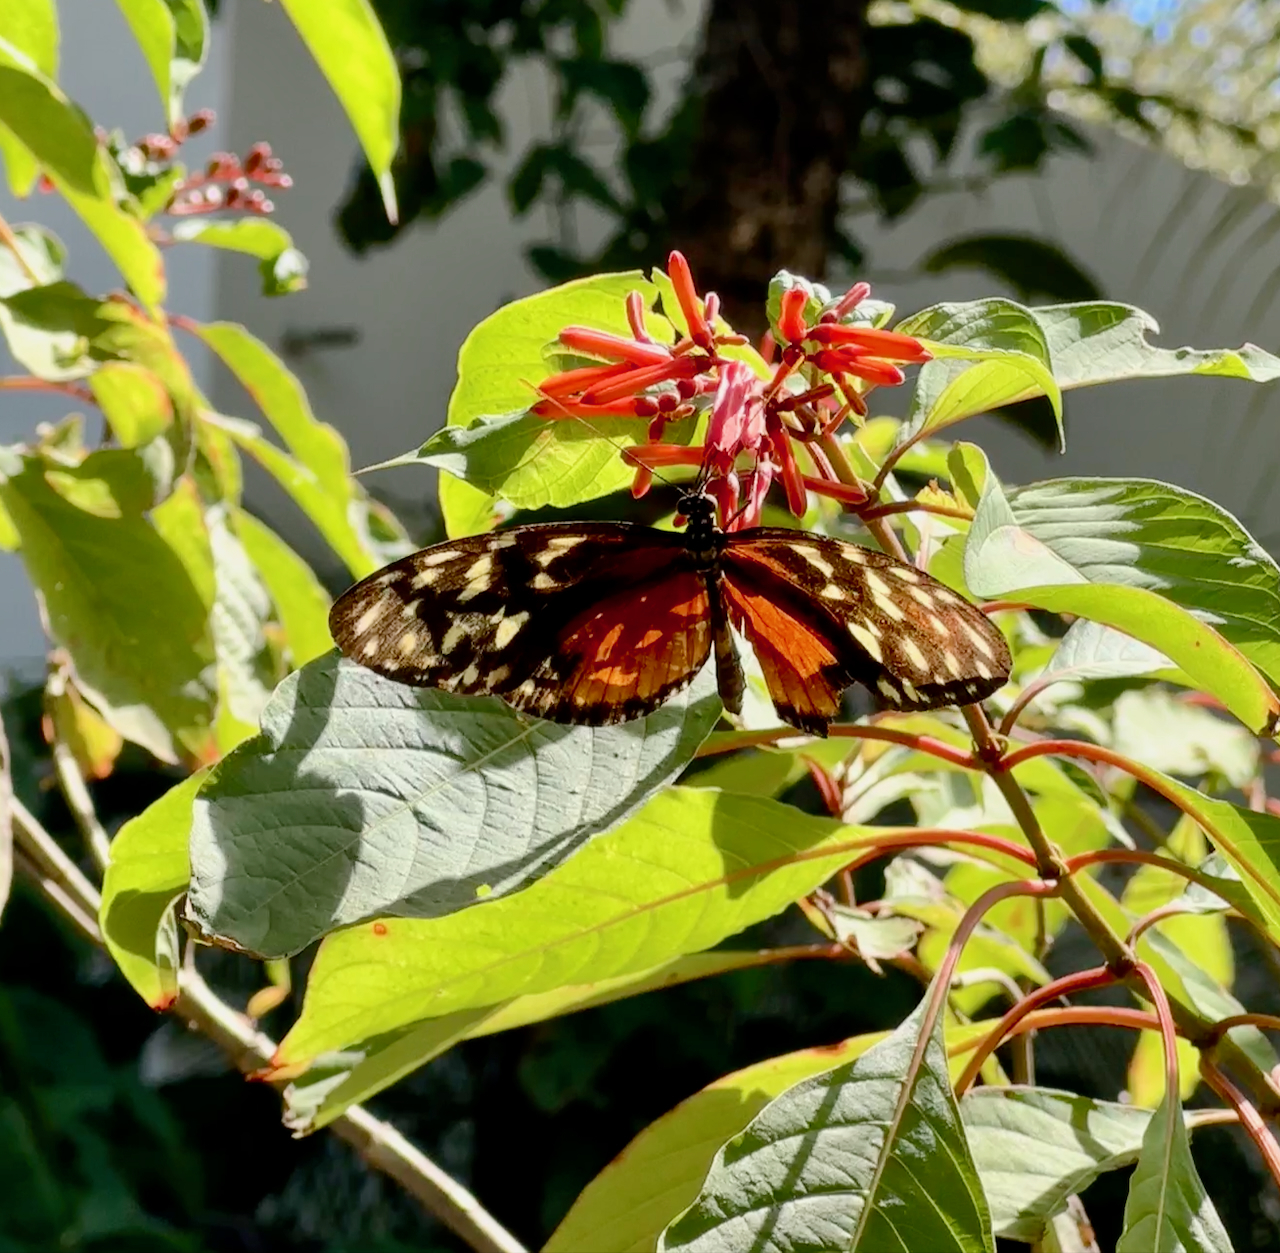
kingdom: Animalia
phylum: Arthropoda
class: Insecta
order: Lepidoptera
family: Nymphalidae
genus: Heliconius
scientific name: Heliconius hecale
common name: Tiger longwing
